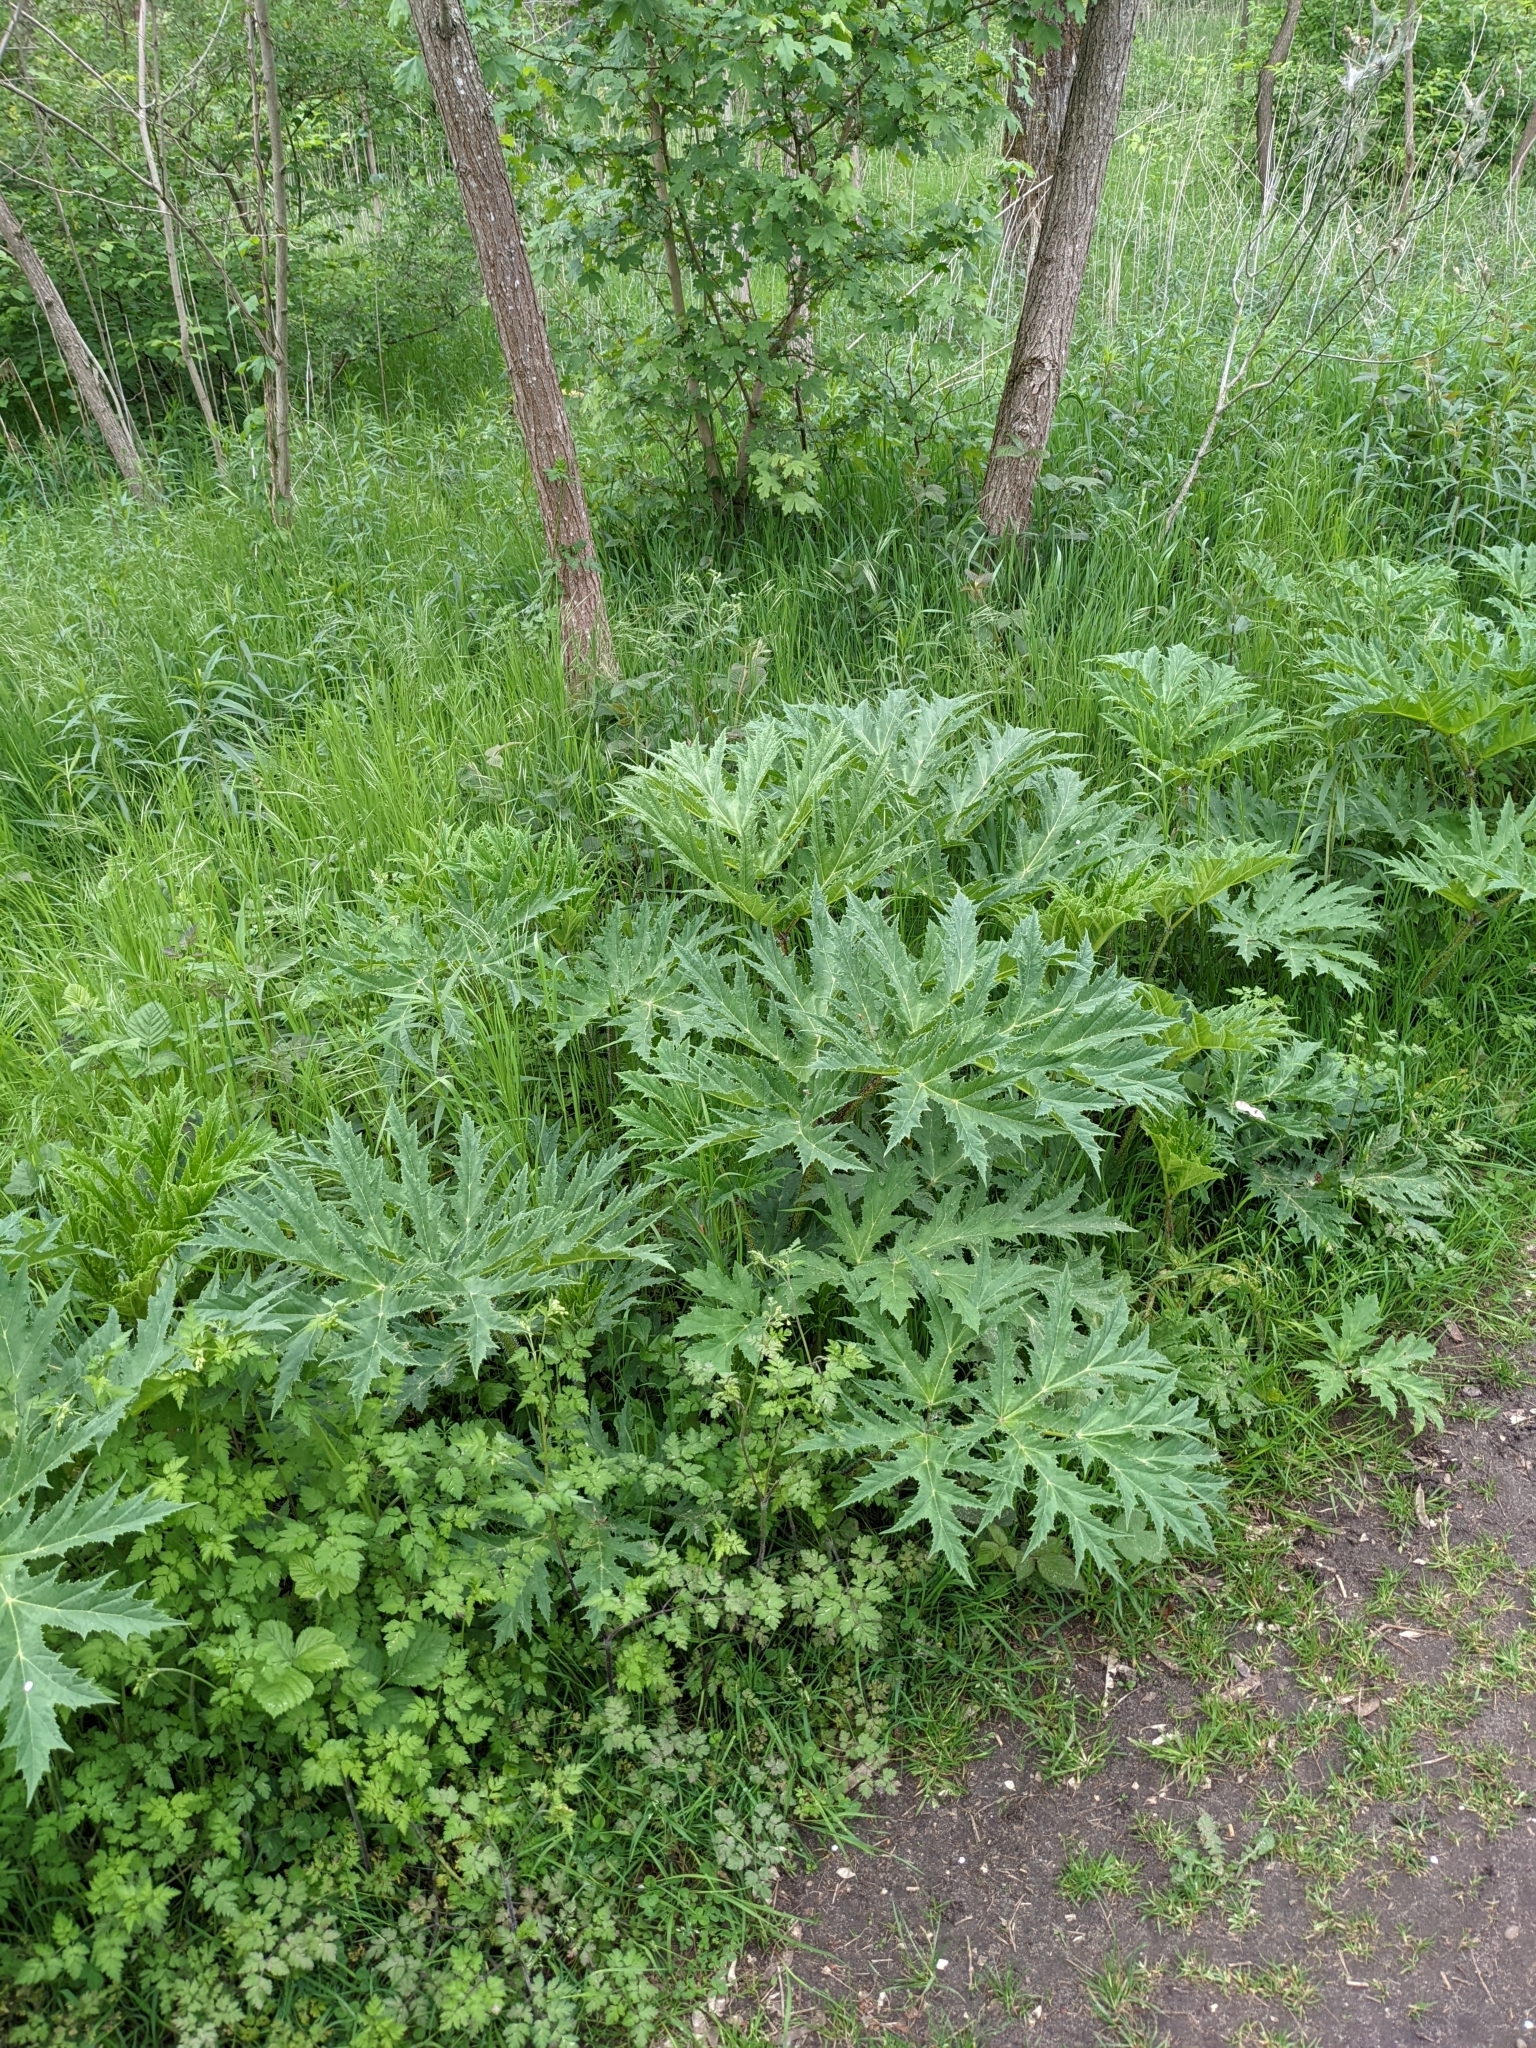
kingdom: Plantae
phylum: Tracheophyta
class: Magnoliopsida
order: Apiales
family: Apiaceae
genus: Heracleum
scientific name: Heracleum mantegazzianum
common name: Giant hogweed
